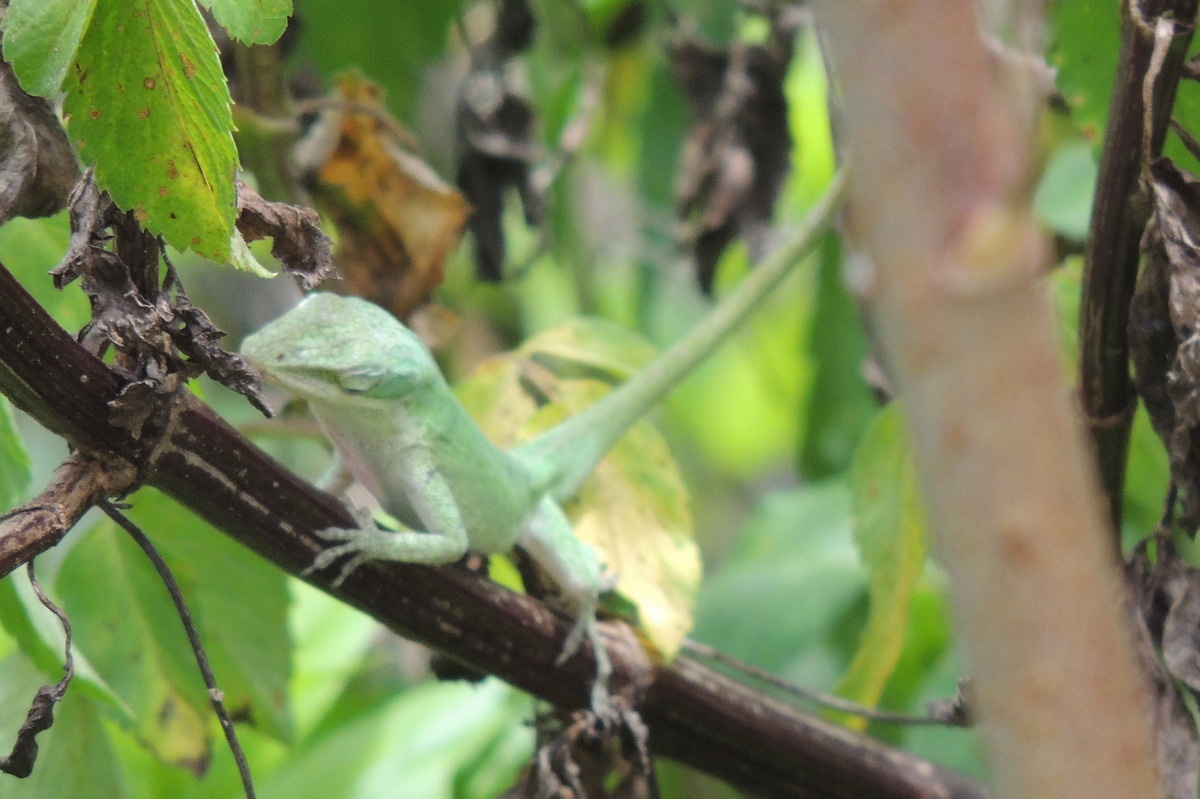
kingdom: Animalia
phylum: Chordata
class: Squamata
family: Dactyloidae
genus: Anolis
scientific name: Anolis carolinensis
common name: Green anole
